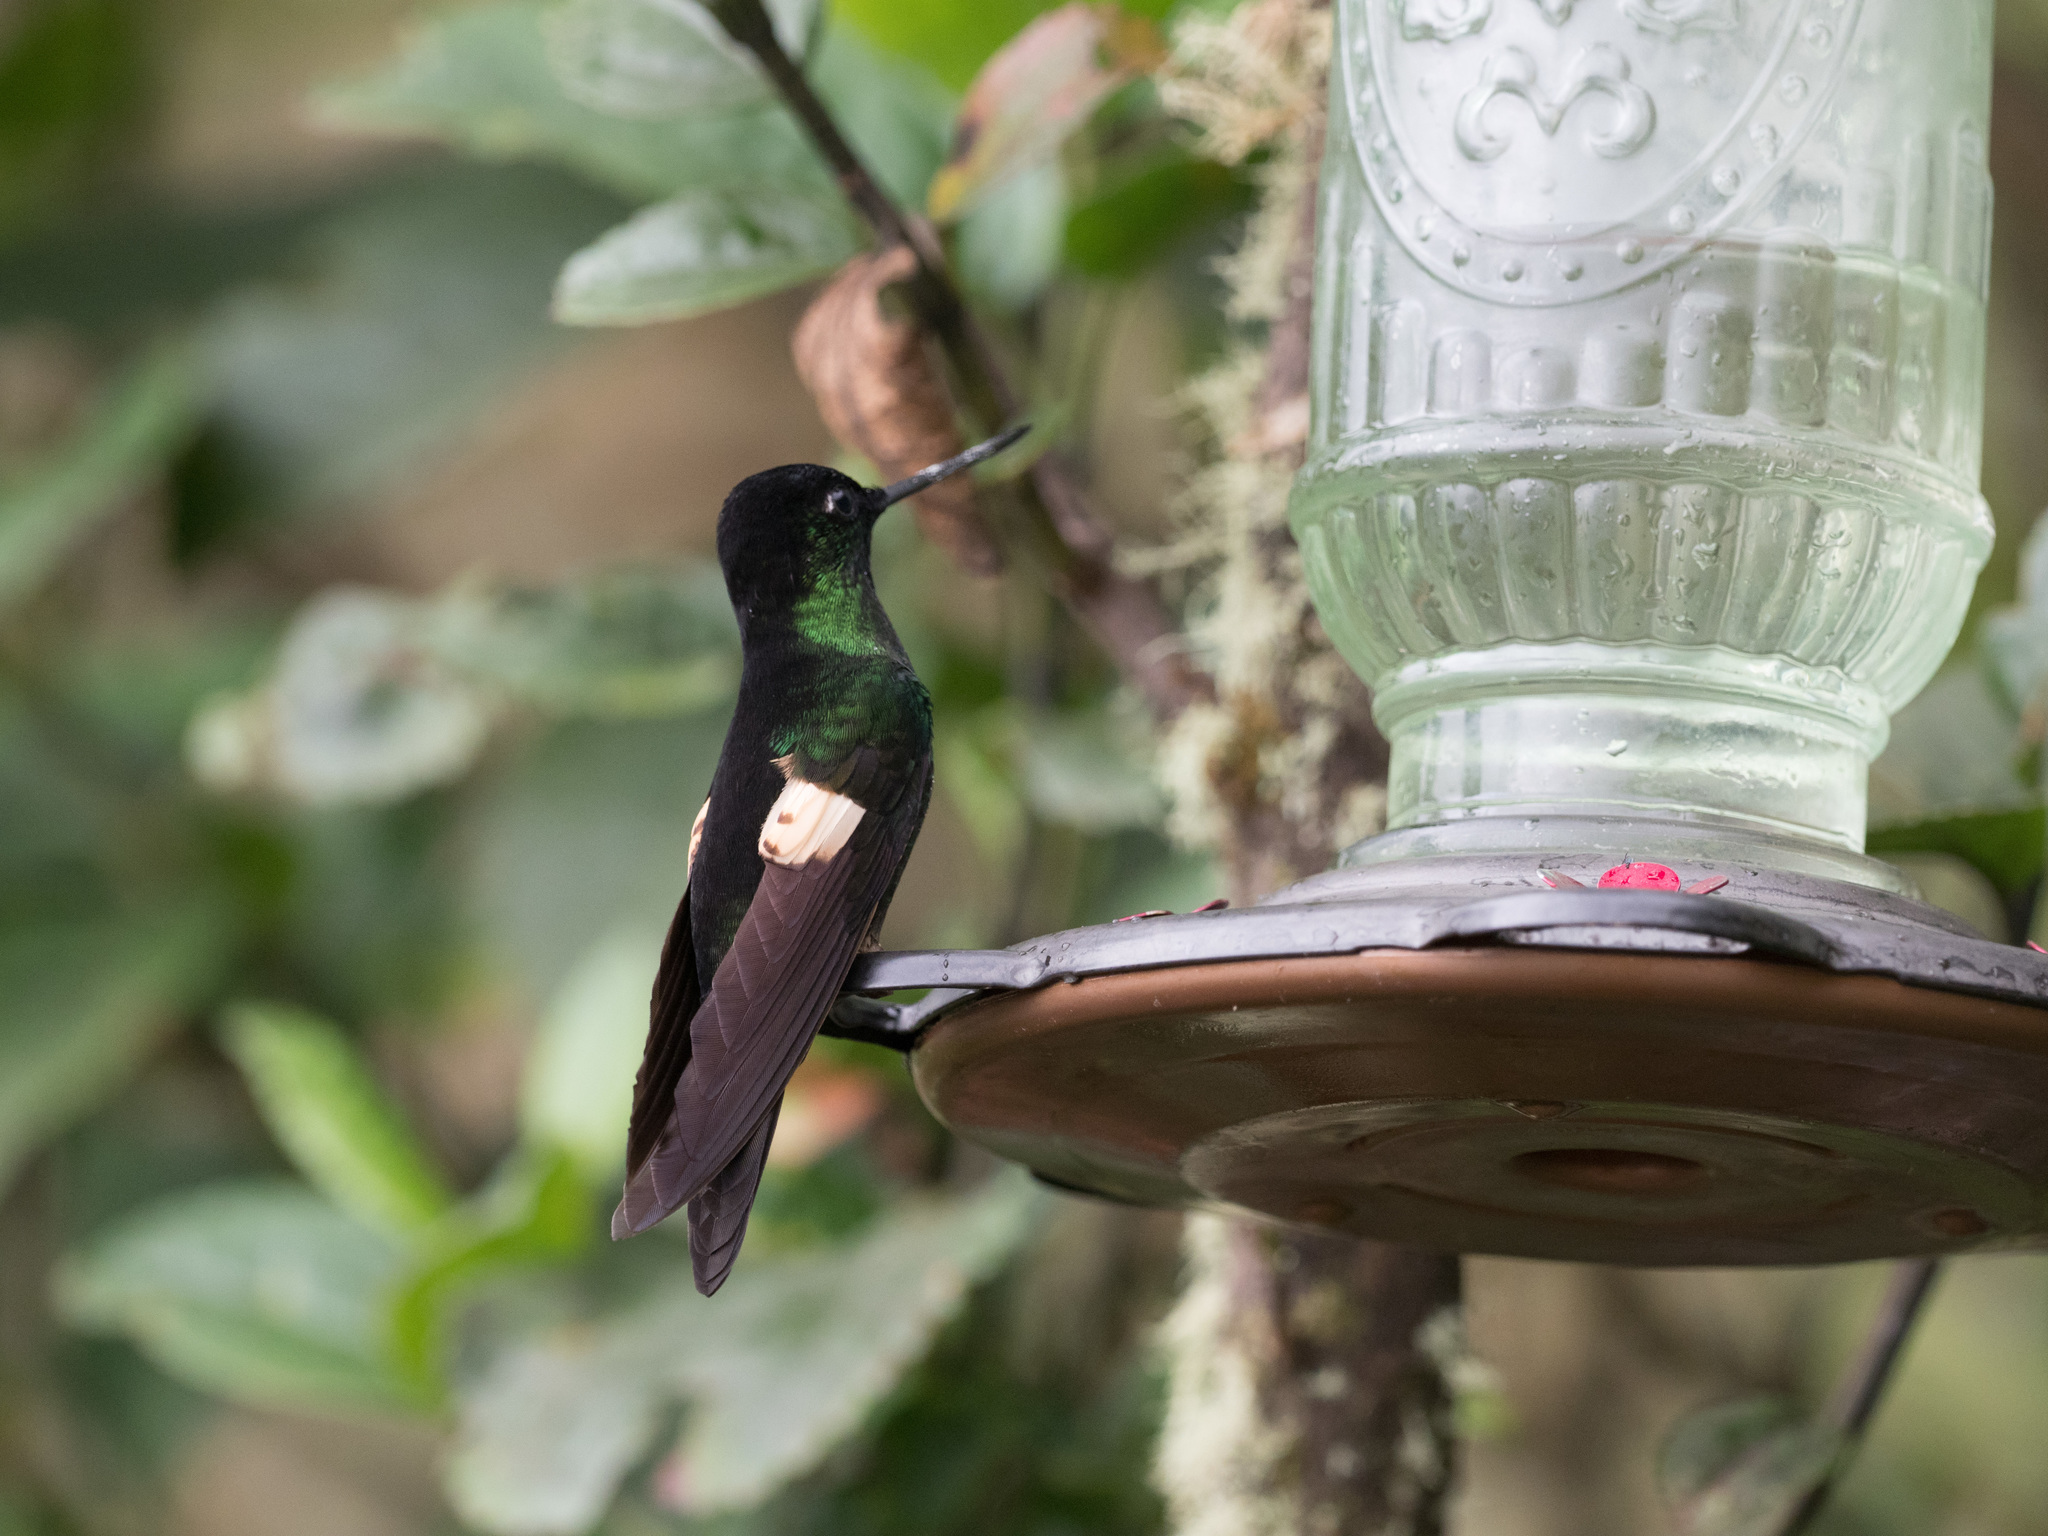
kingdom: Animalia
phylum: Chordata
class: Aves
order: Apodiformes
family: Trochilidae
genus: Coeligena
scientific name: Coeligena lutetiae
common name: Buff-winged starfrontlet
